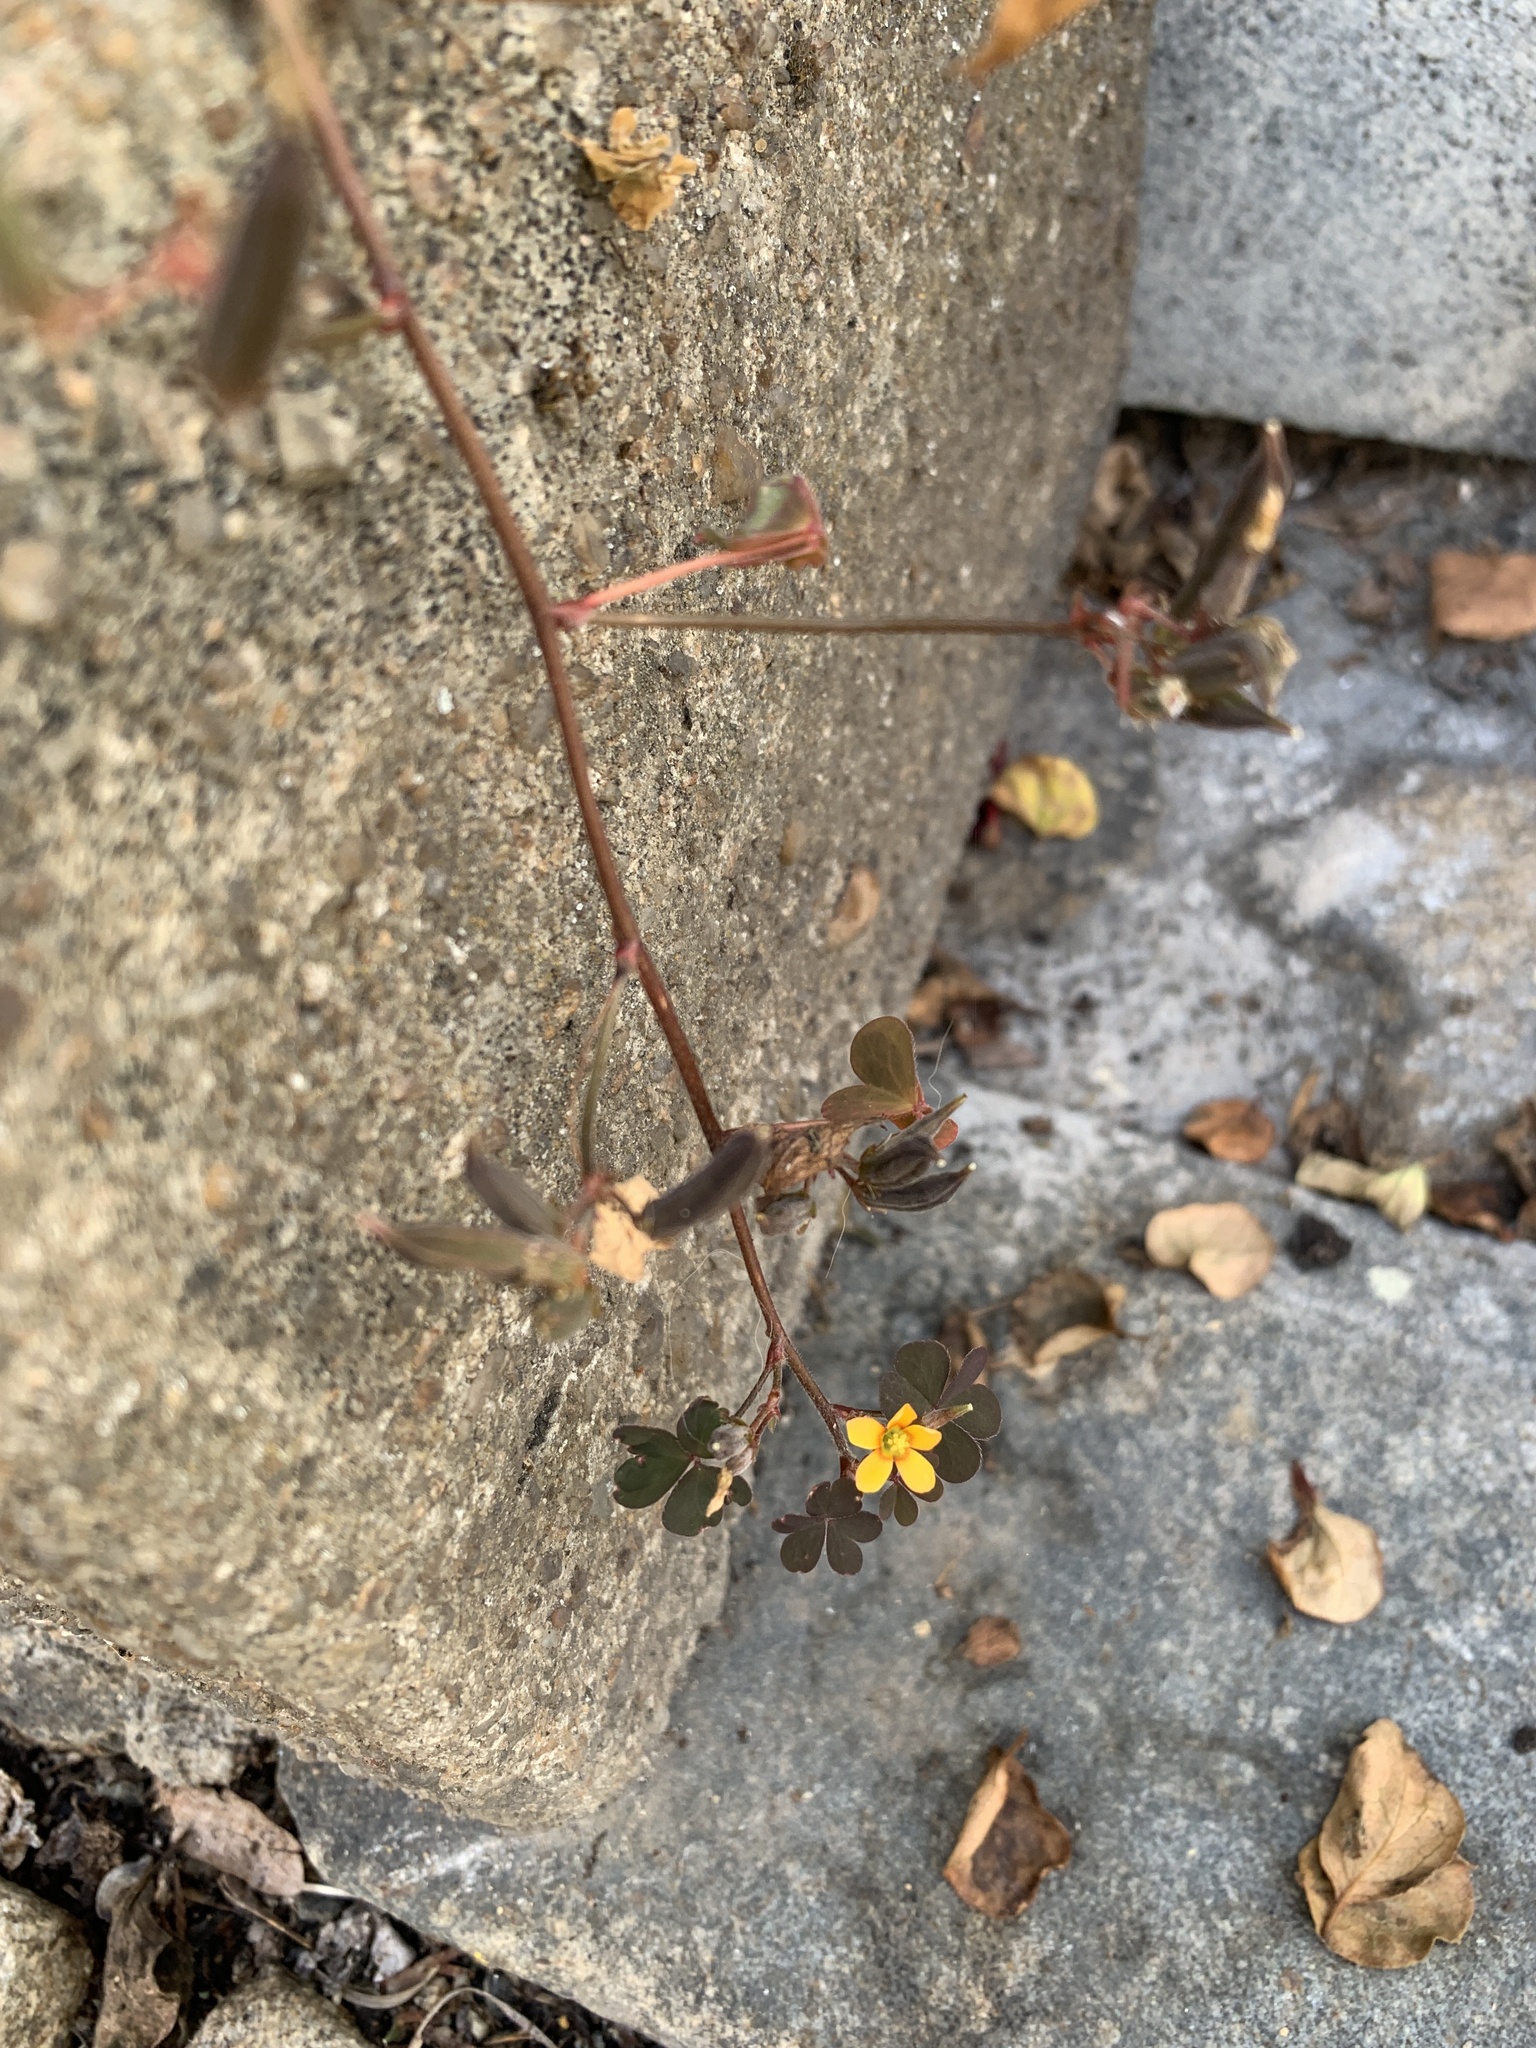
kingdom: Plantae
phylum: Tracheophyta
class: Magnoliopsida
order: Oxalidales
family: Oxalidaceae
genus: Oxalis
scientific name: Oxalis corniculata
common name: Procumbent yellow-sorrel
